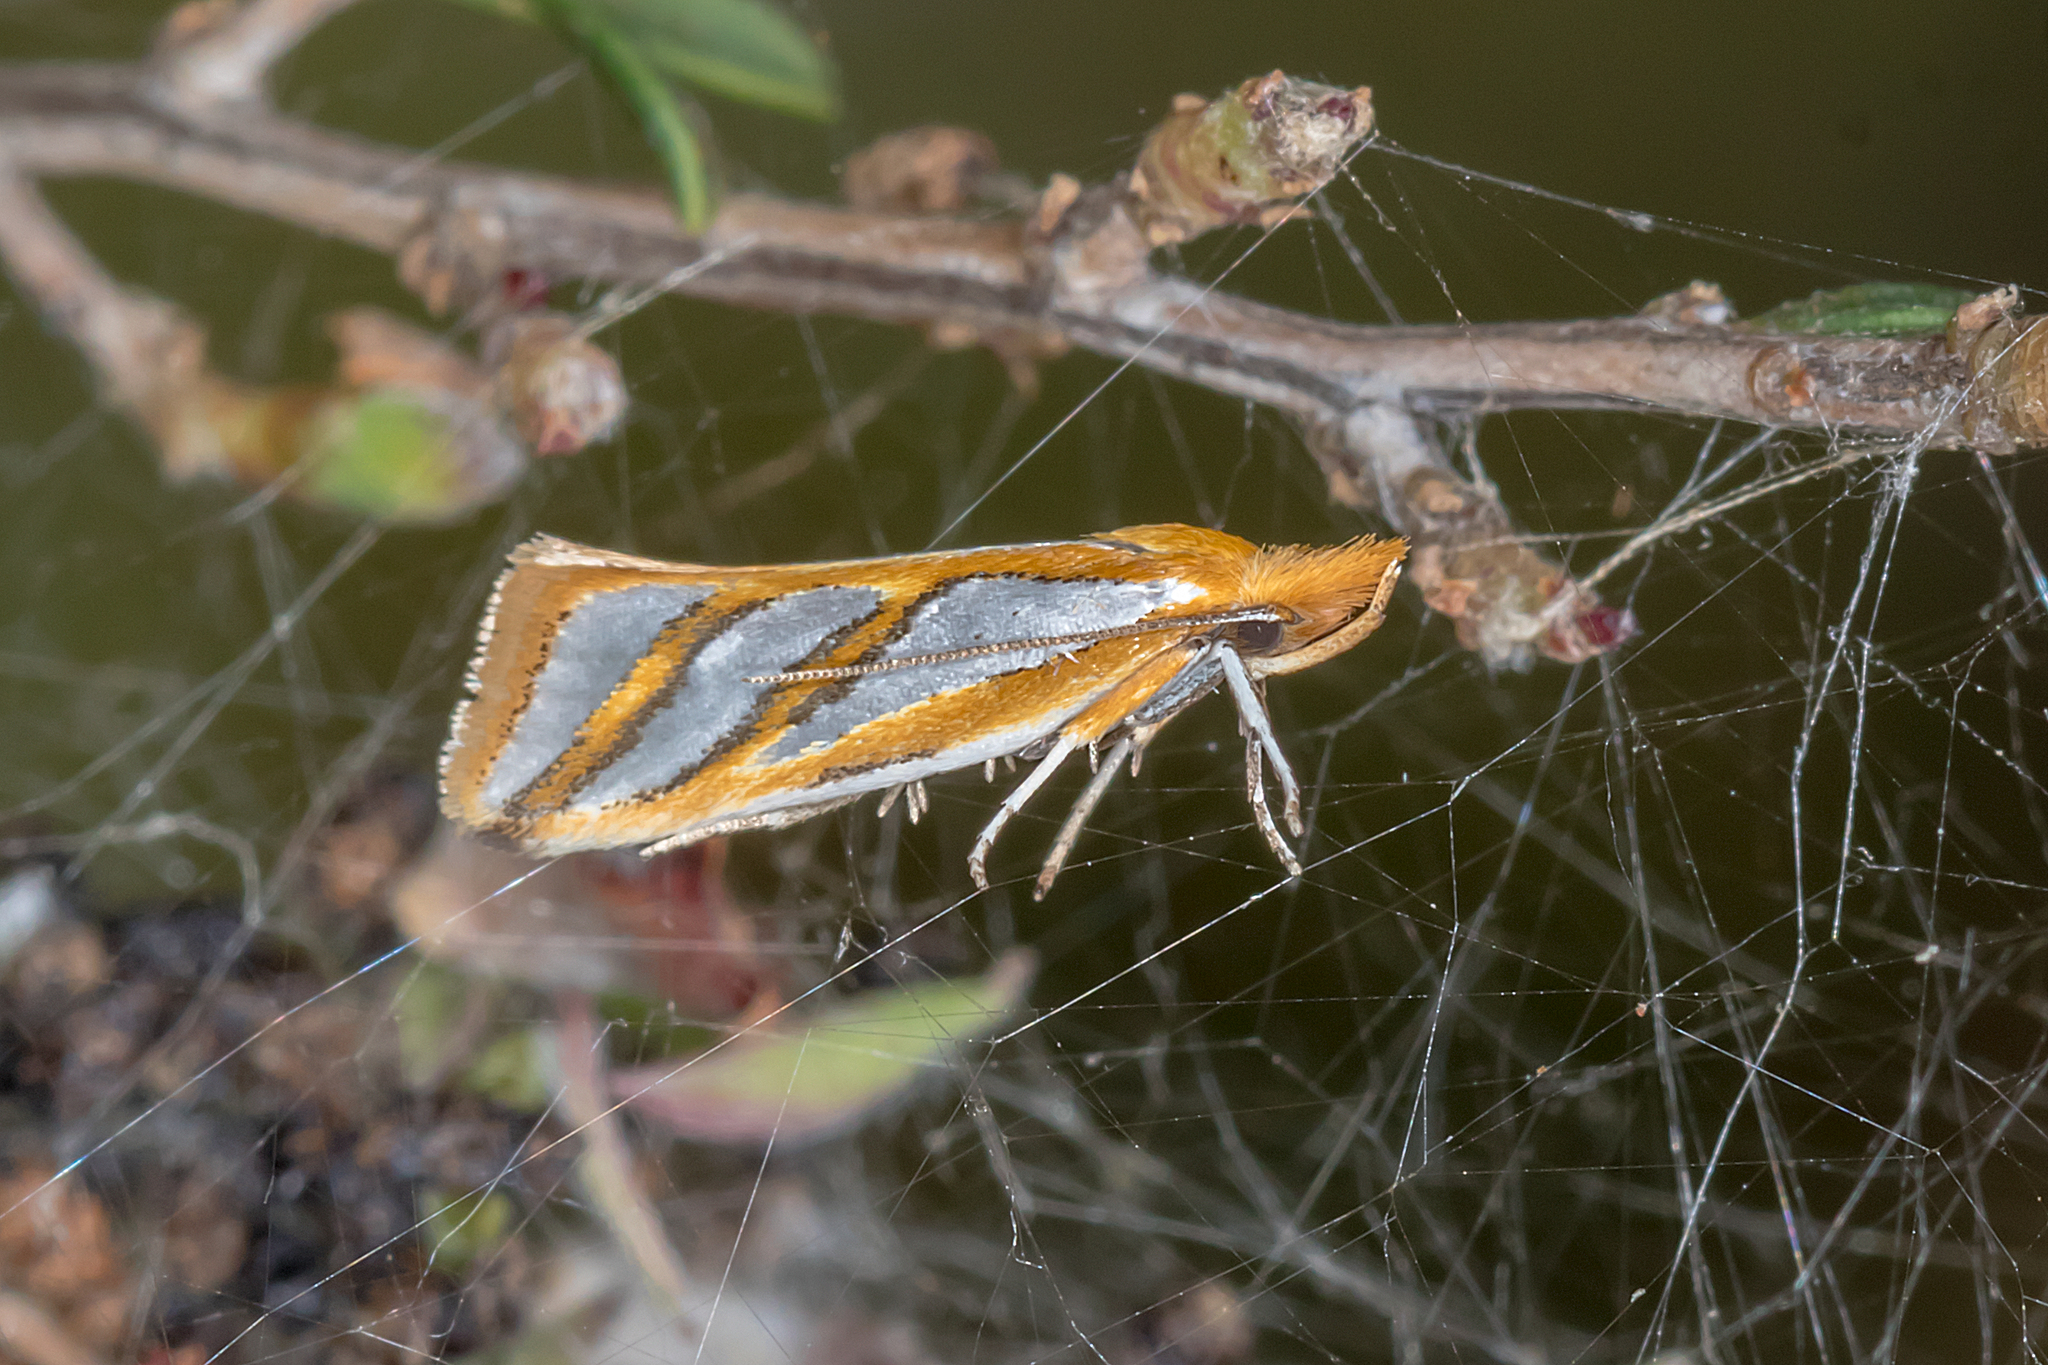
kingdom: Animalia
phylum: Arthropoda
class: Insecta
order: Lepidoptera
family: Depressariidae
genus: Thudaca
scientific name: Thudaca obliquella
